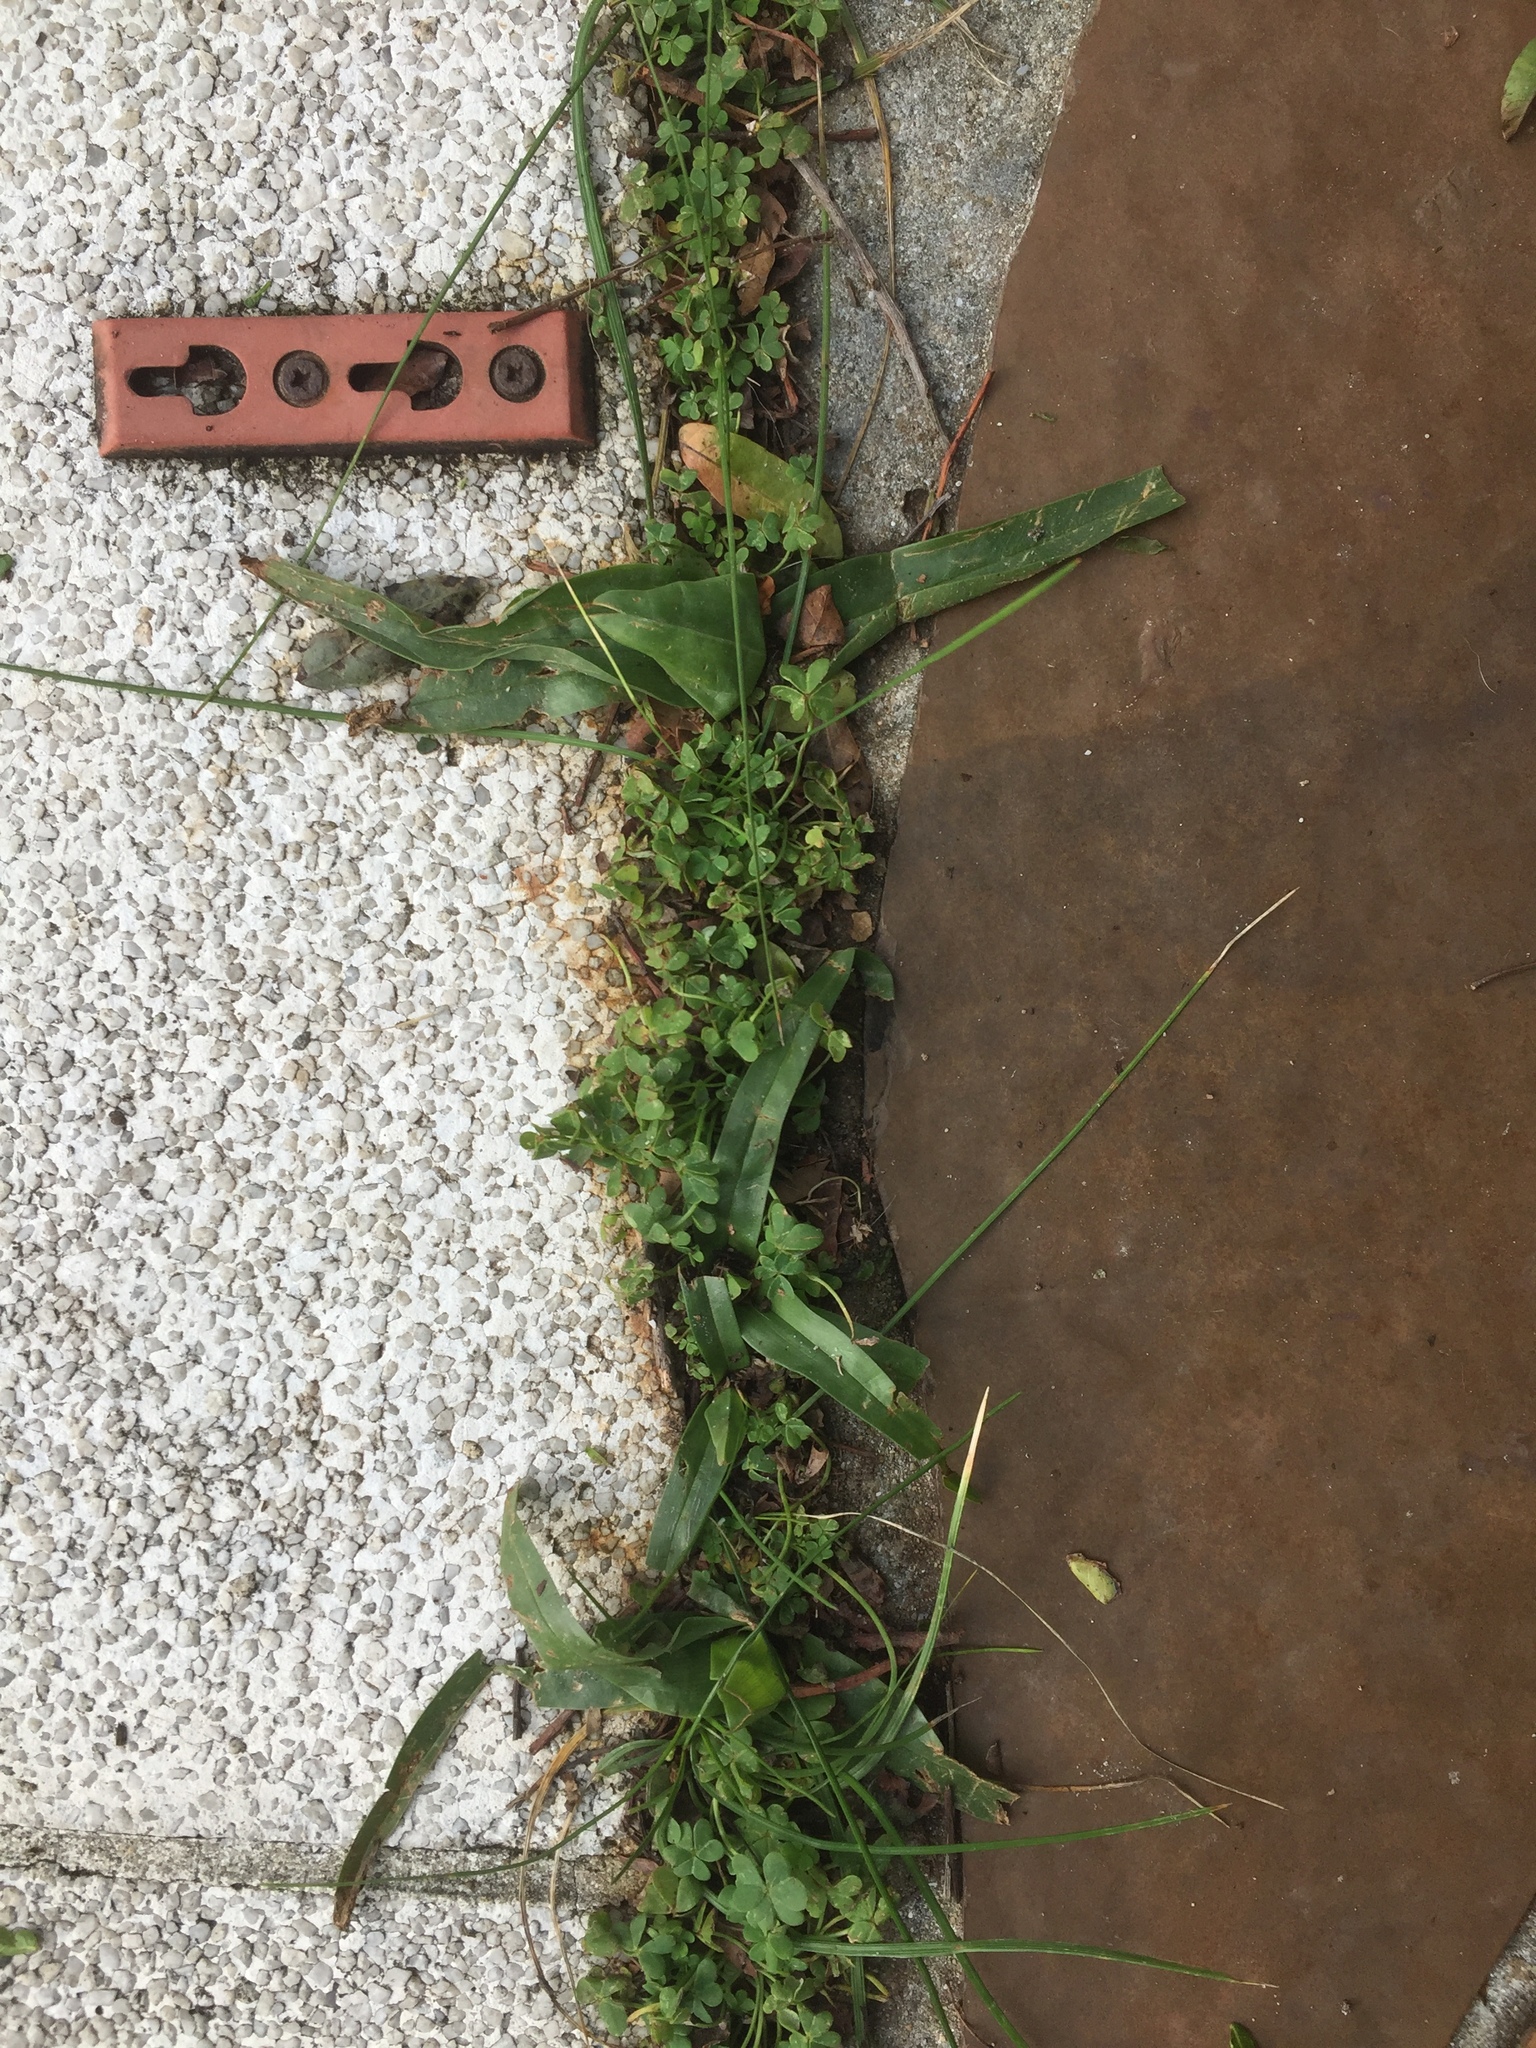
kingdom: Plantae
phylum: Tracheophyta
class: Liliopsida
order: Liliales
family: Colchicaceae
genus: Colchicum
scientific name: Colchicum eucomoides
